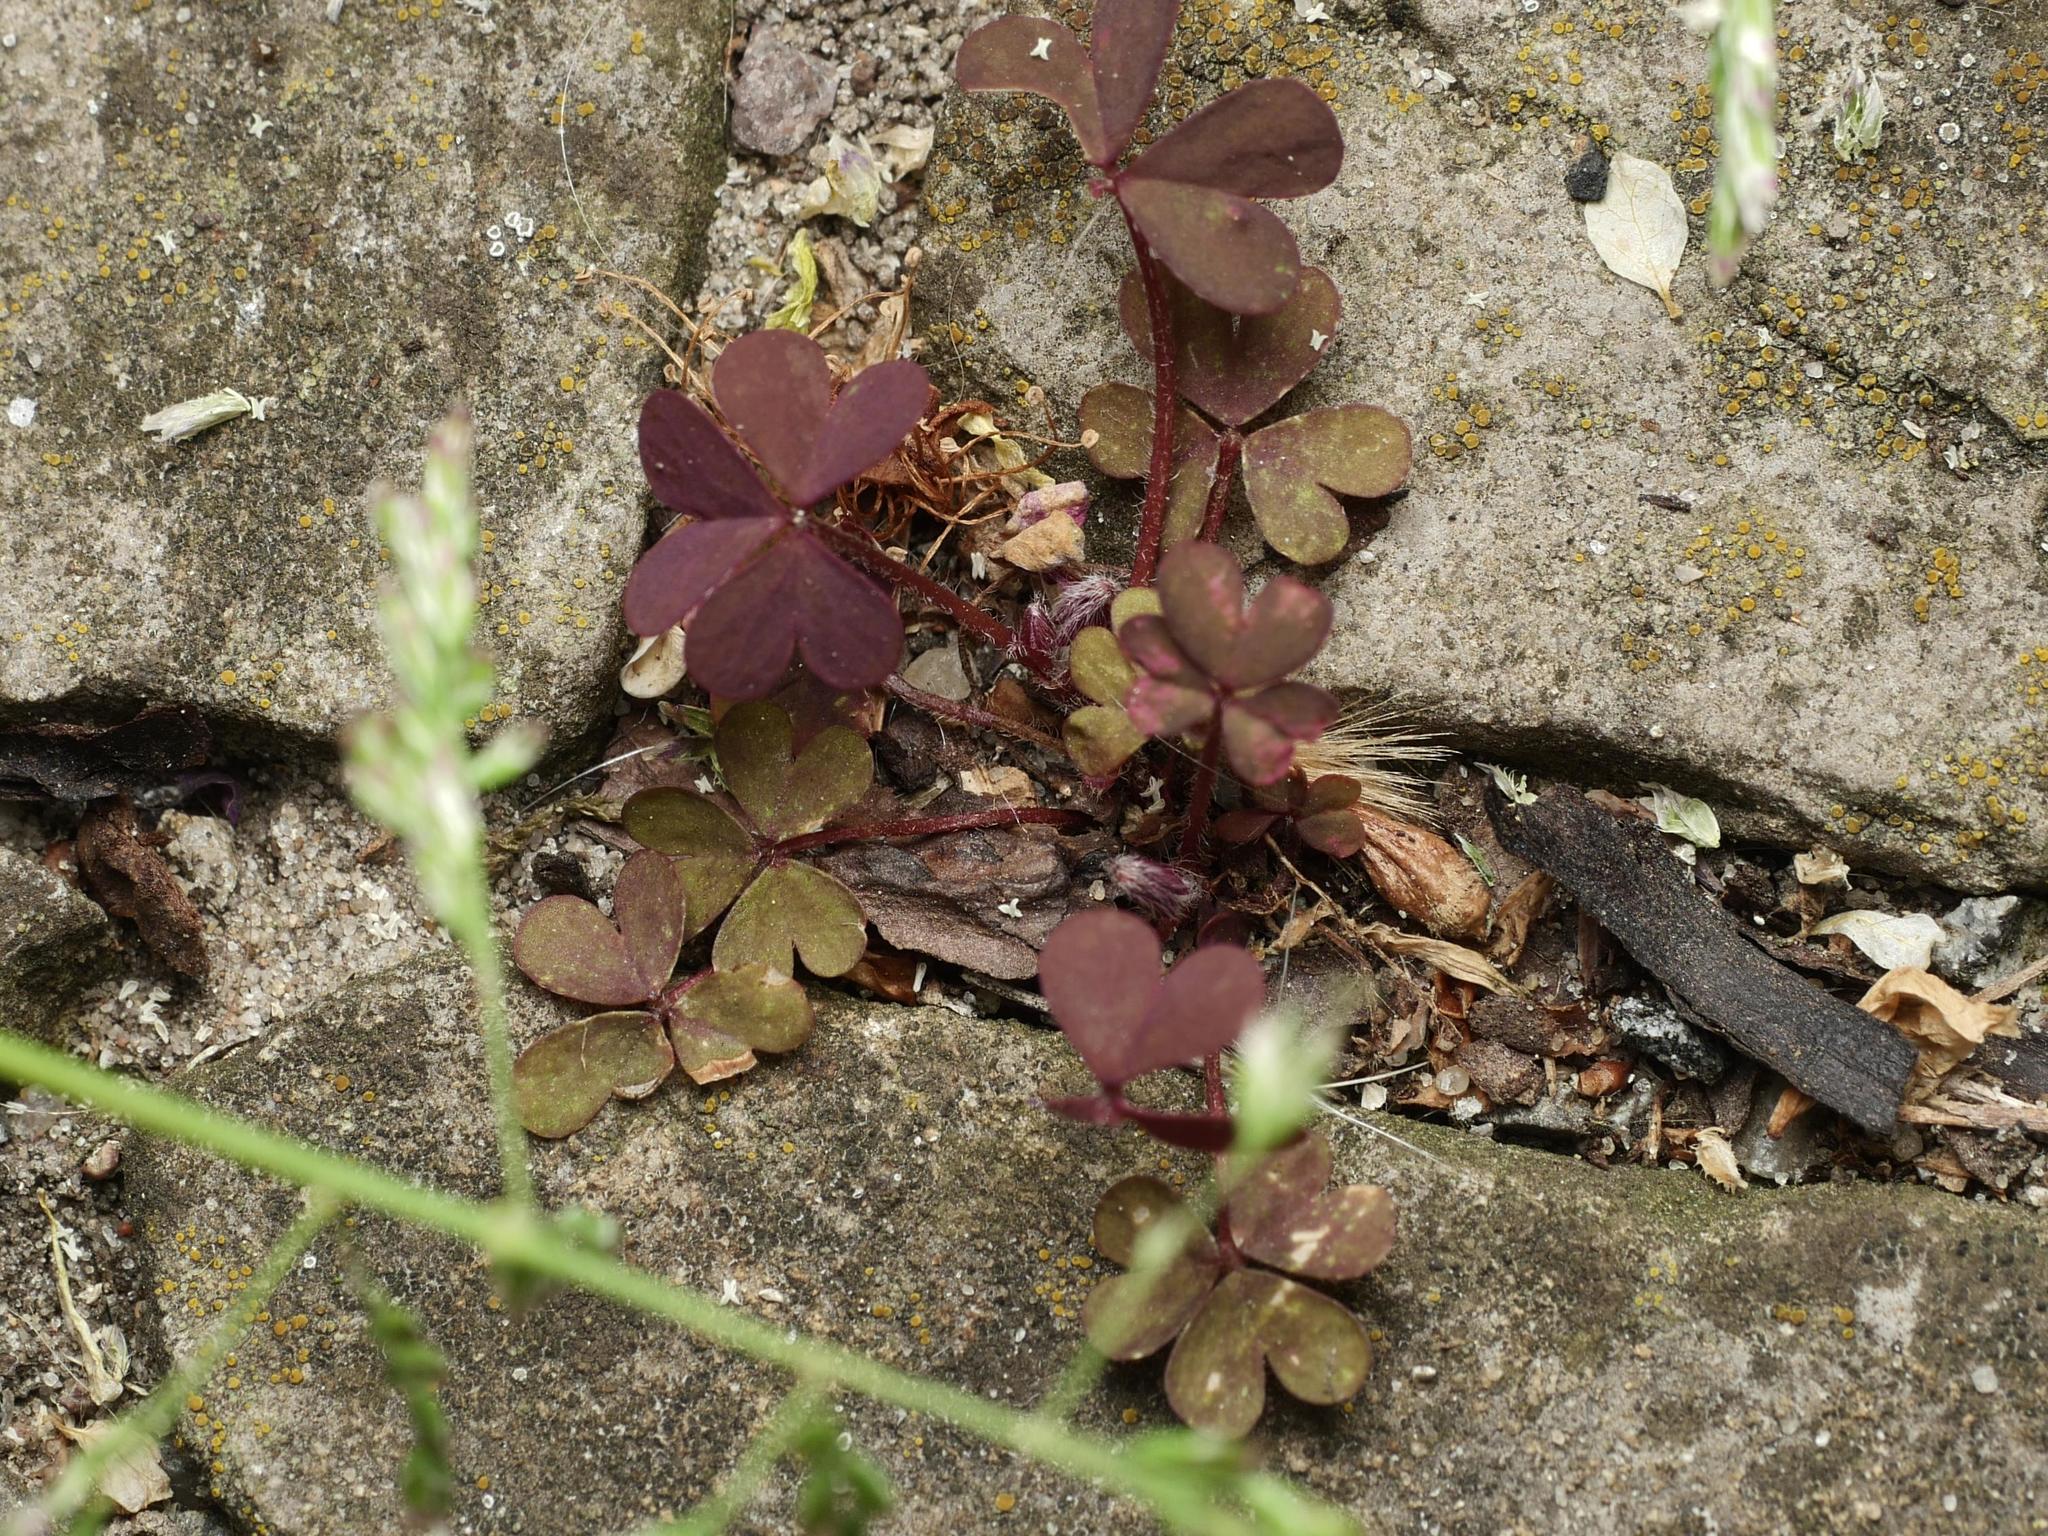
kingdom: Plantae
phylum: Tracheophyta
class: Magnoliopsida
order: Oxalidales
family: Oxalidaceae
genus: Oxalis
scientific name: Oxalis corniculata
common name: Procumbent yellow-sorrel
